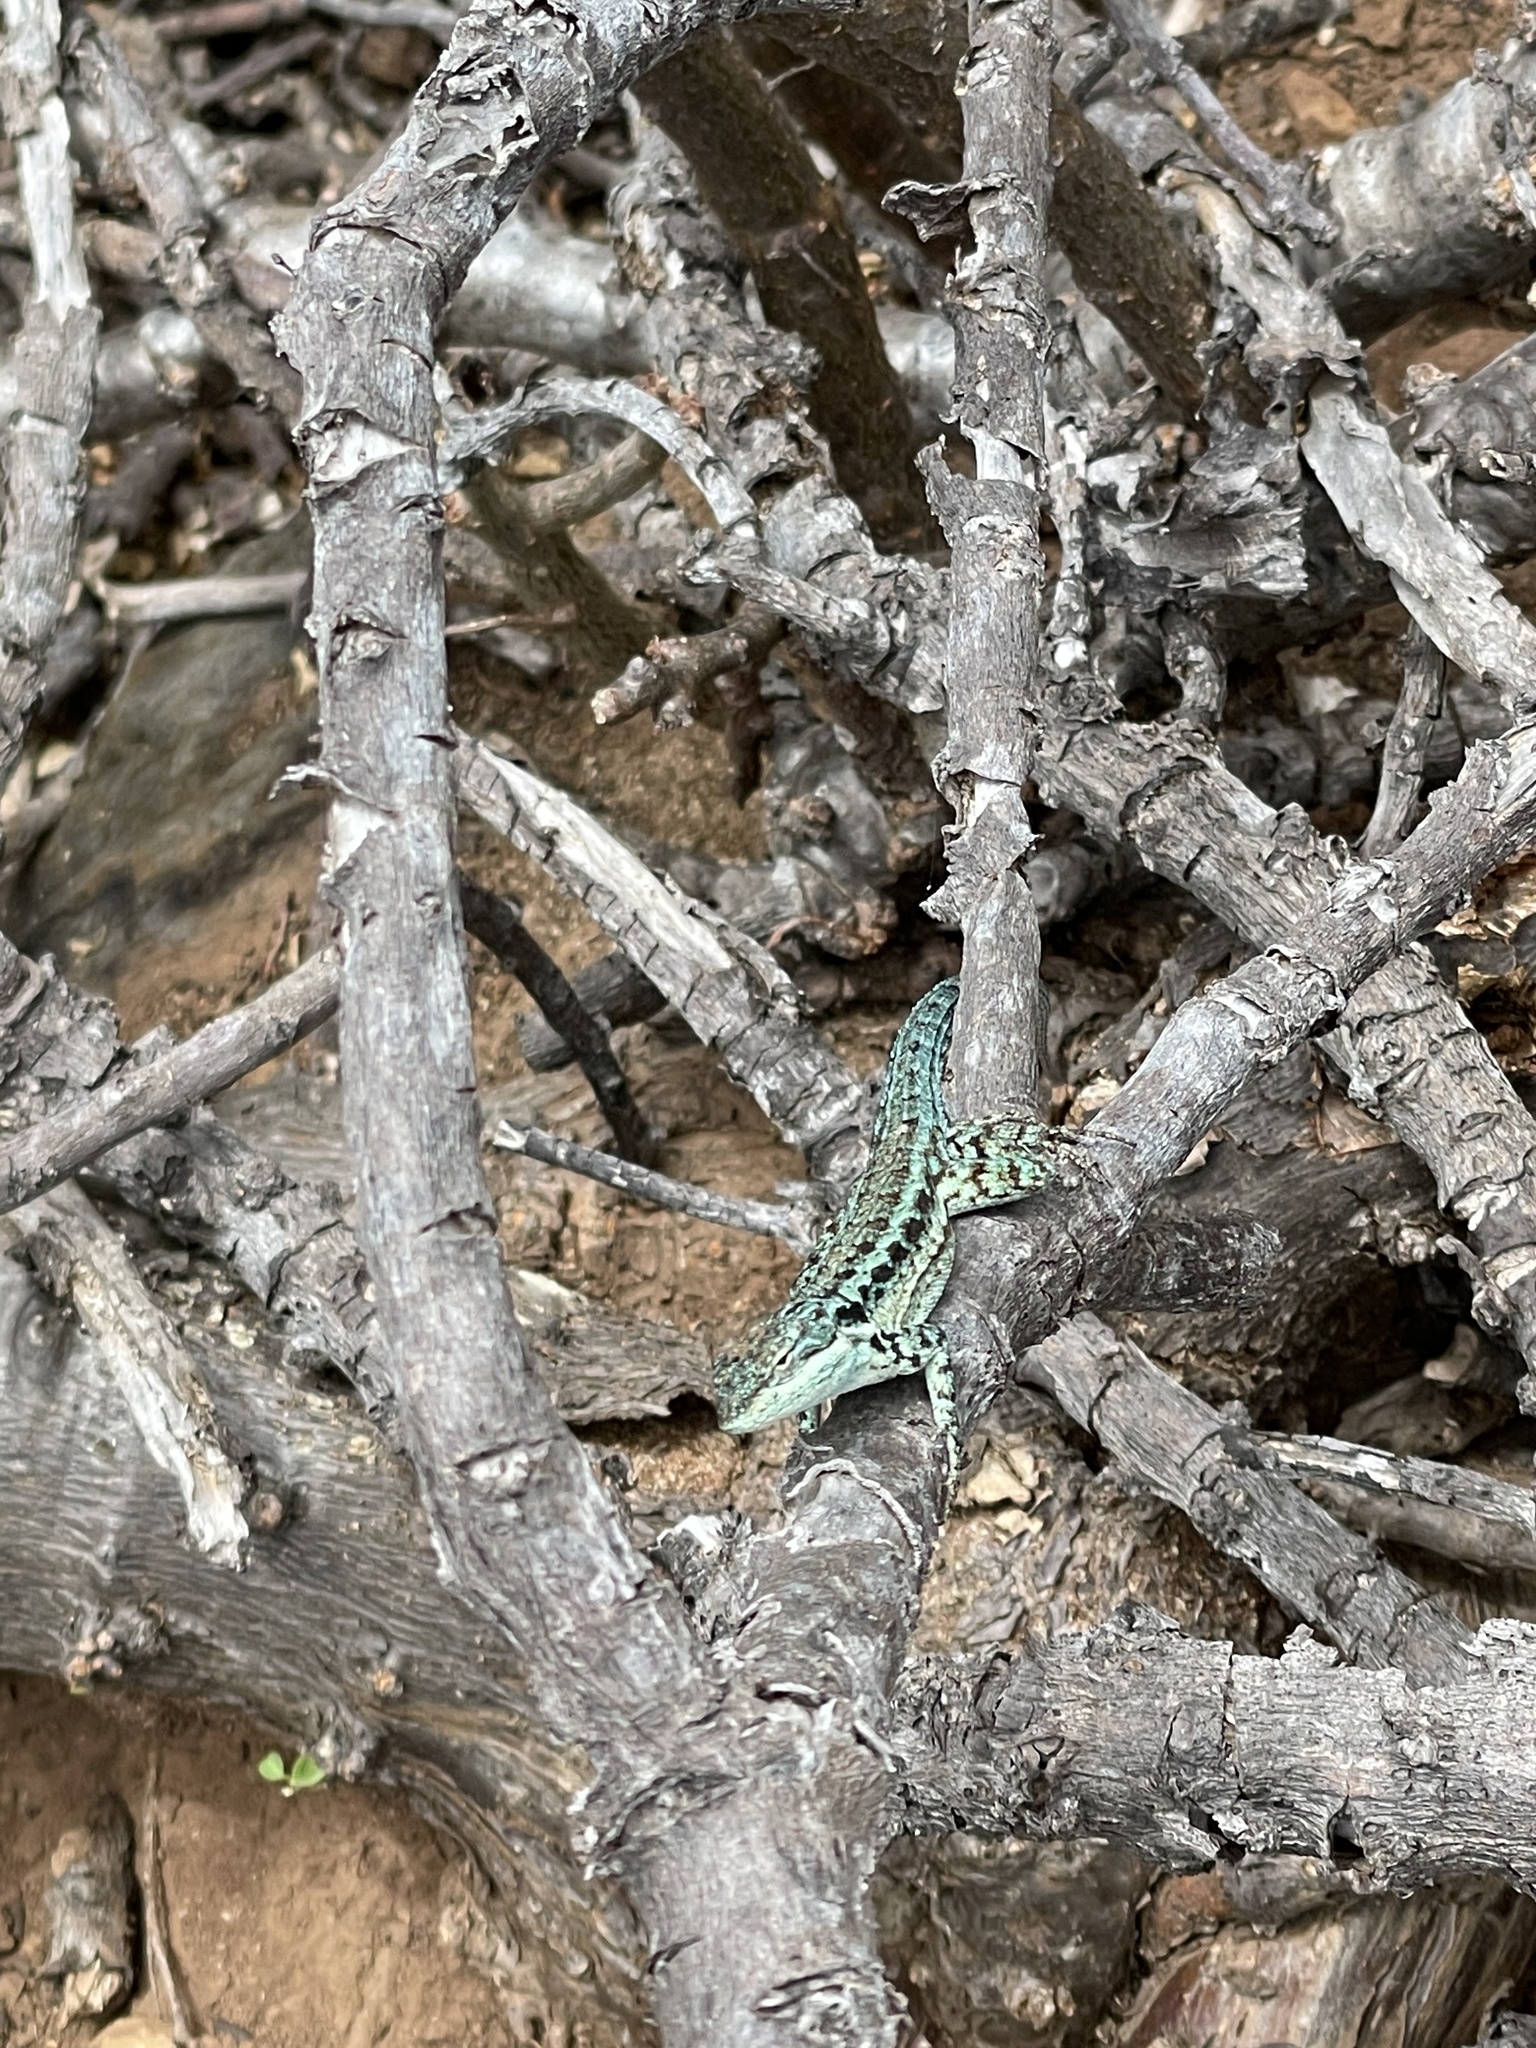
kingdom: Animalia
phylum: Chordata
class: Squamata
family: Phrynosomatidae
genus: Urosaurus
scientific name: Urosaurus clarionensis
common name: Clarion island tree lizard
